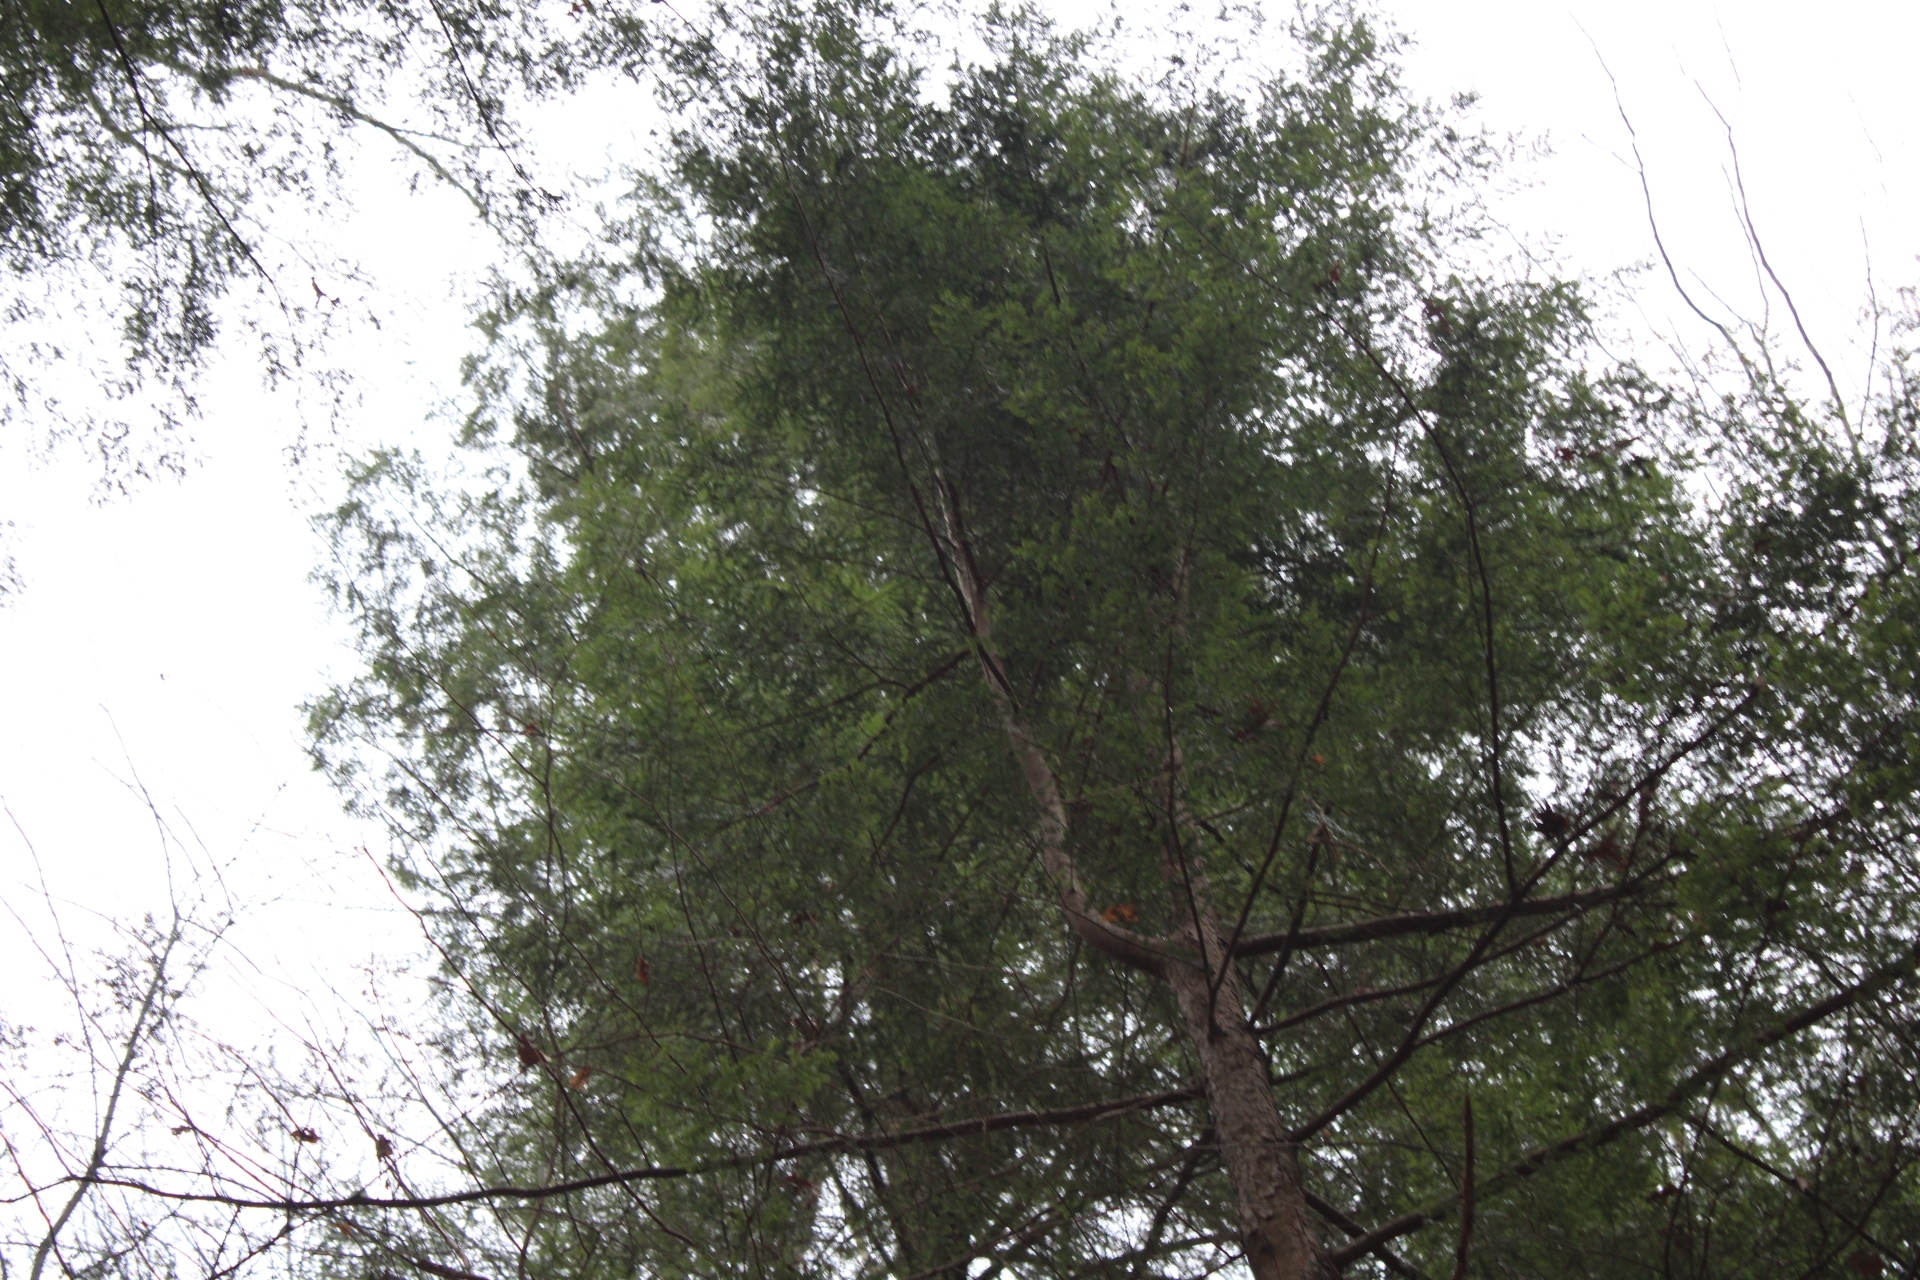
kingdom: Plantae
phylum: Tracheophyta
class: Pinopsida
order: Pinales
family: Pinaceae
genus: Tsuga
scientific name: Tsuga canadensis
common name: Eastern hemlock
